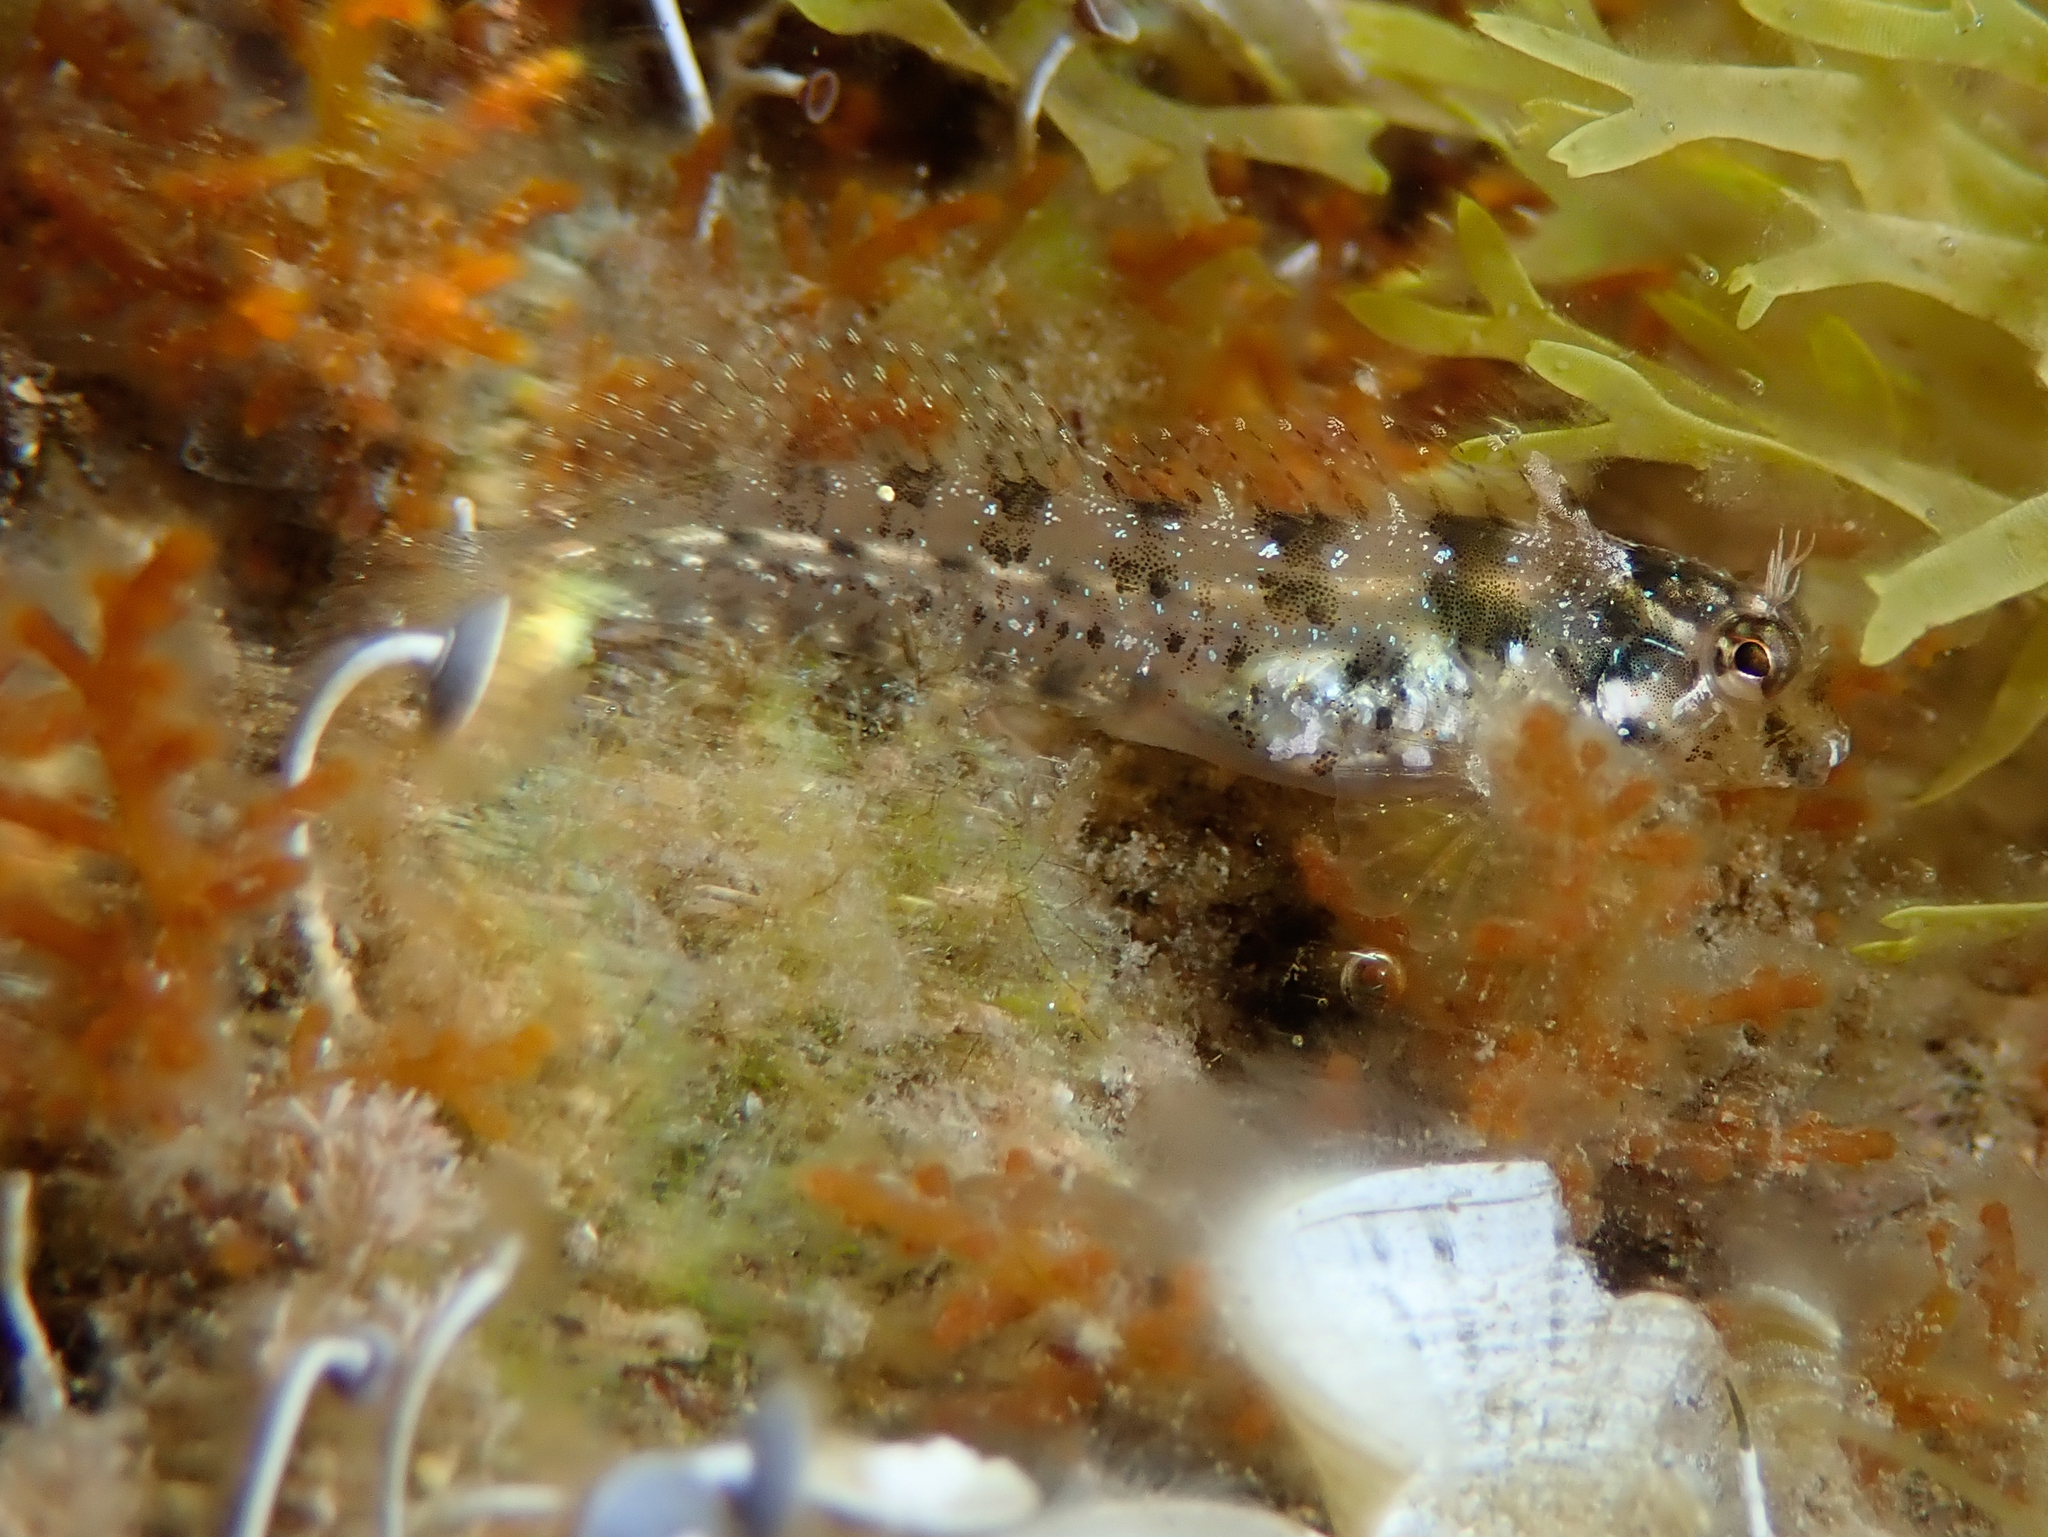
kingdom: Animalia
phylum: Chordata
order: Perciformes
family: Blenniidae
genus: Parablennius
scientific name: Parablennius incognitus
